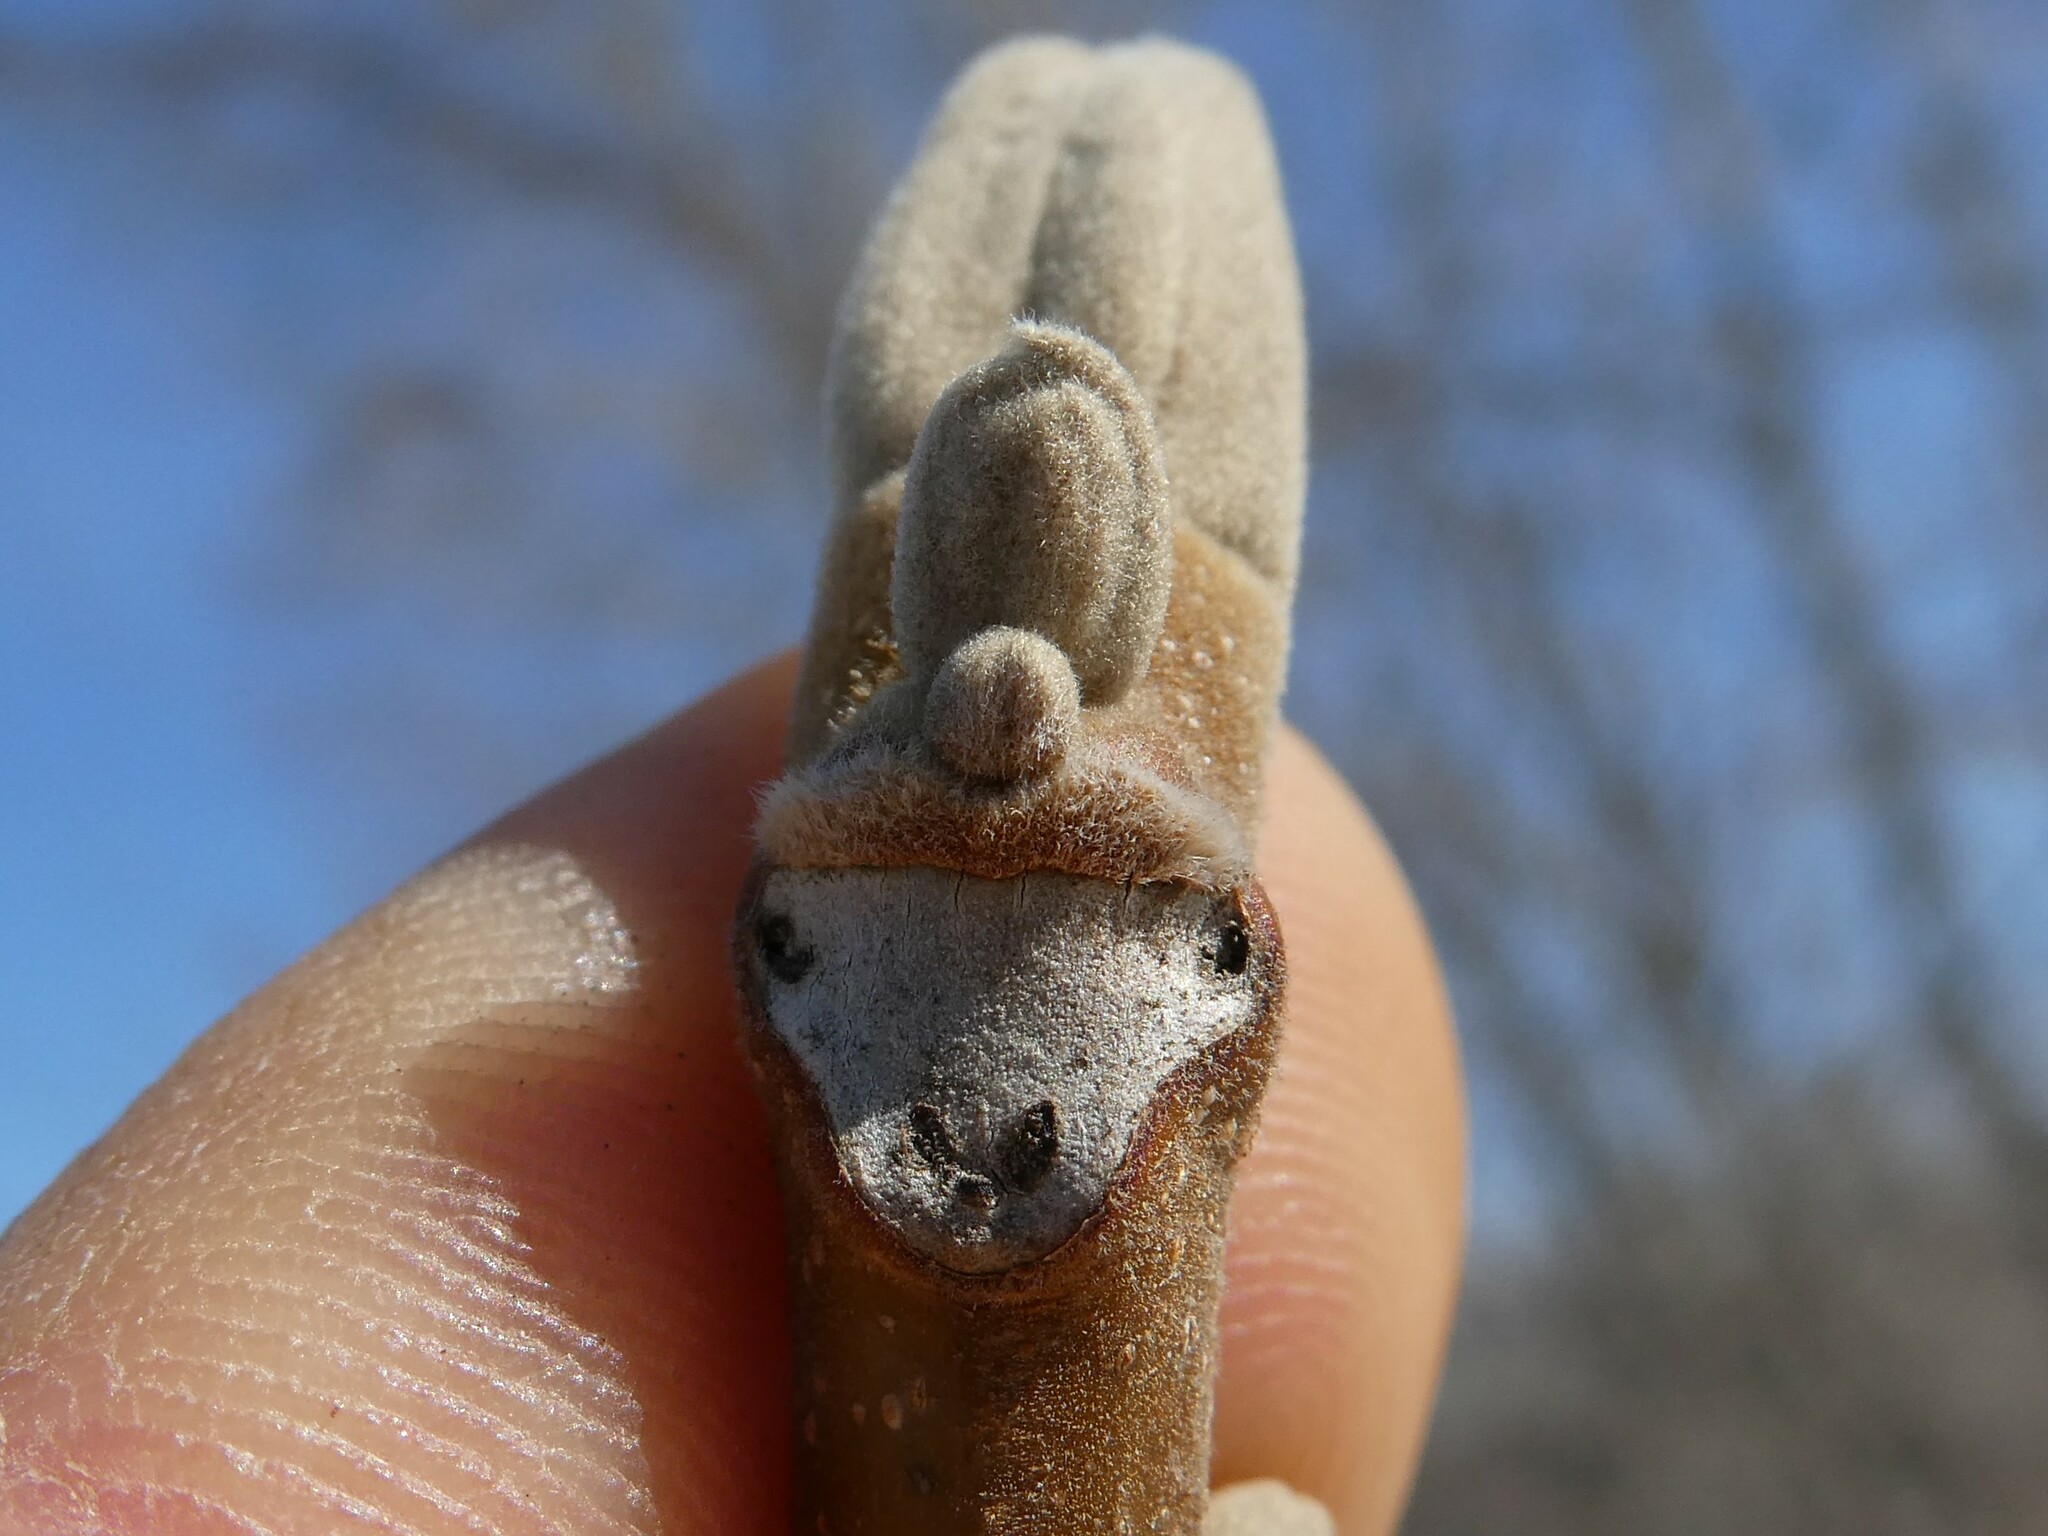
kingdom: Plantae
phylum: Tracheophyta
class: Magnoliopsida
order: Fagales
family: Juglandaceae
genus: Juglans
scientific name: Juglans cinerea
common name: Butternut
